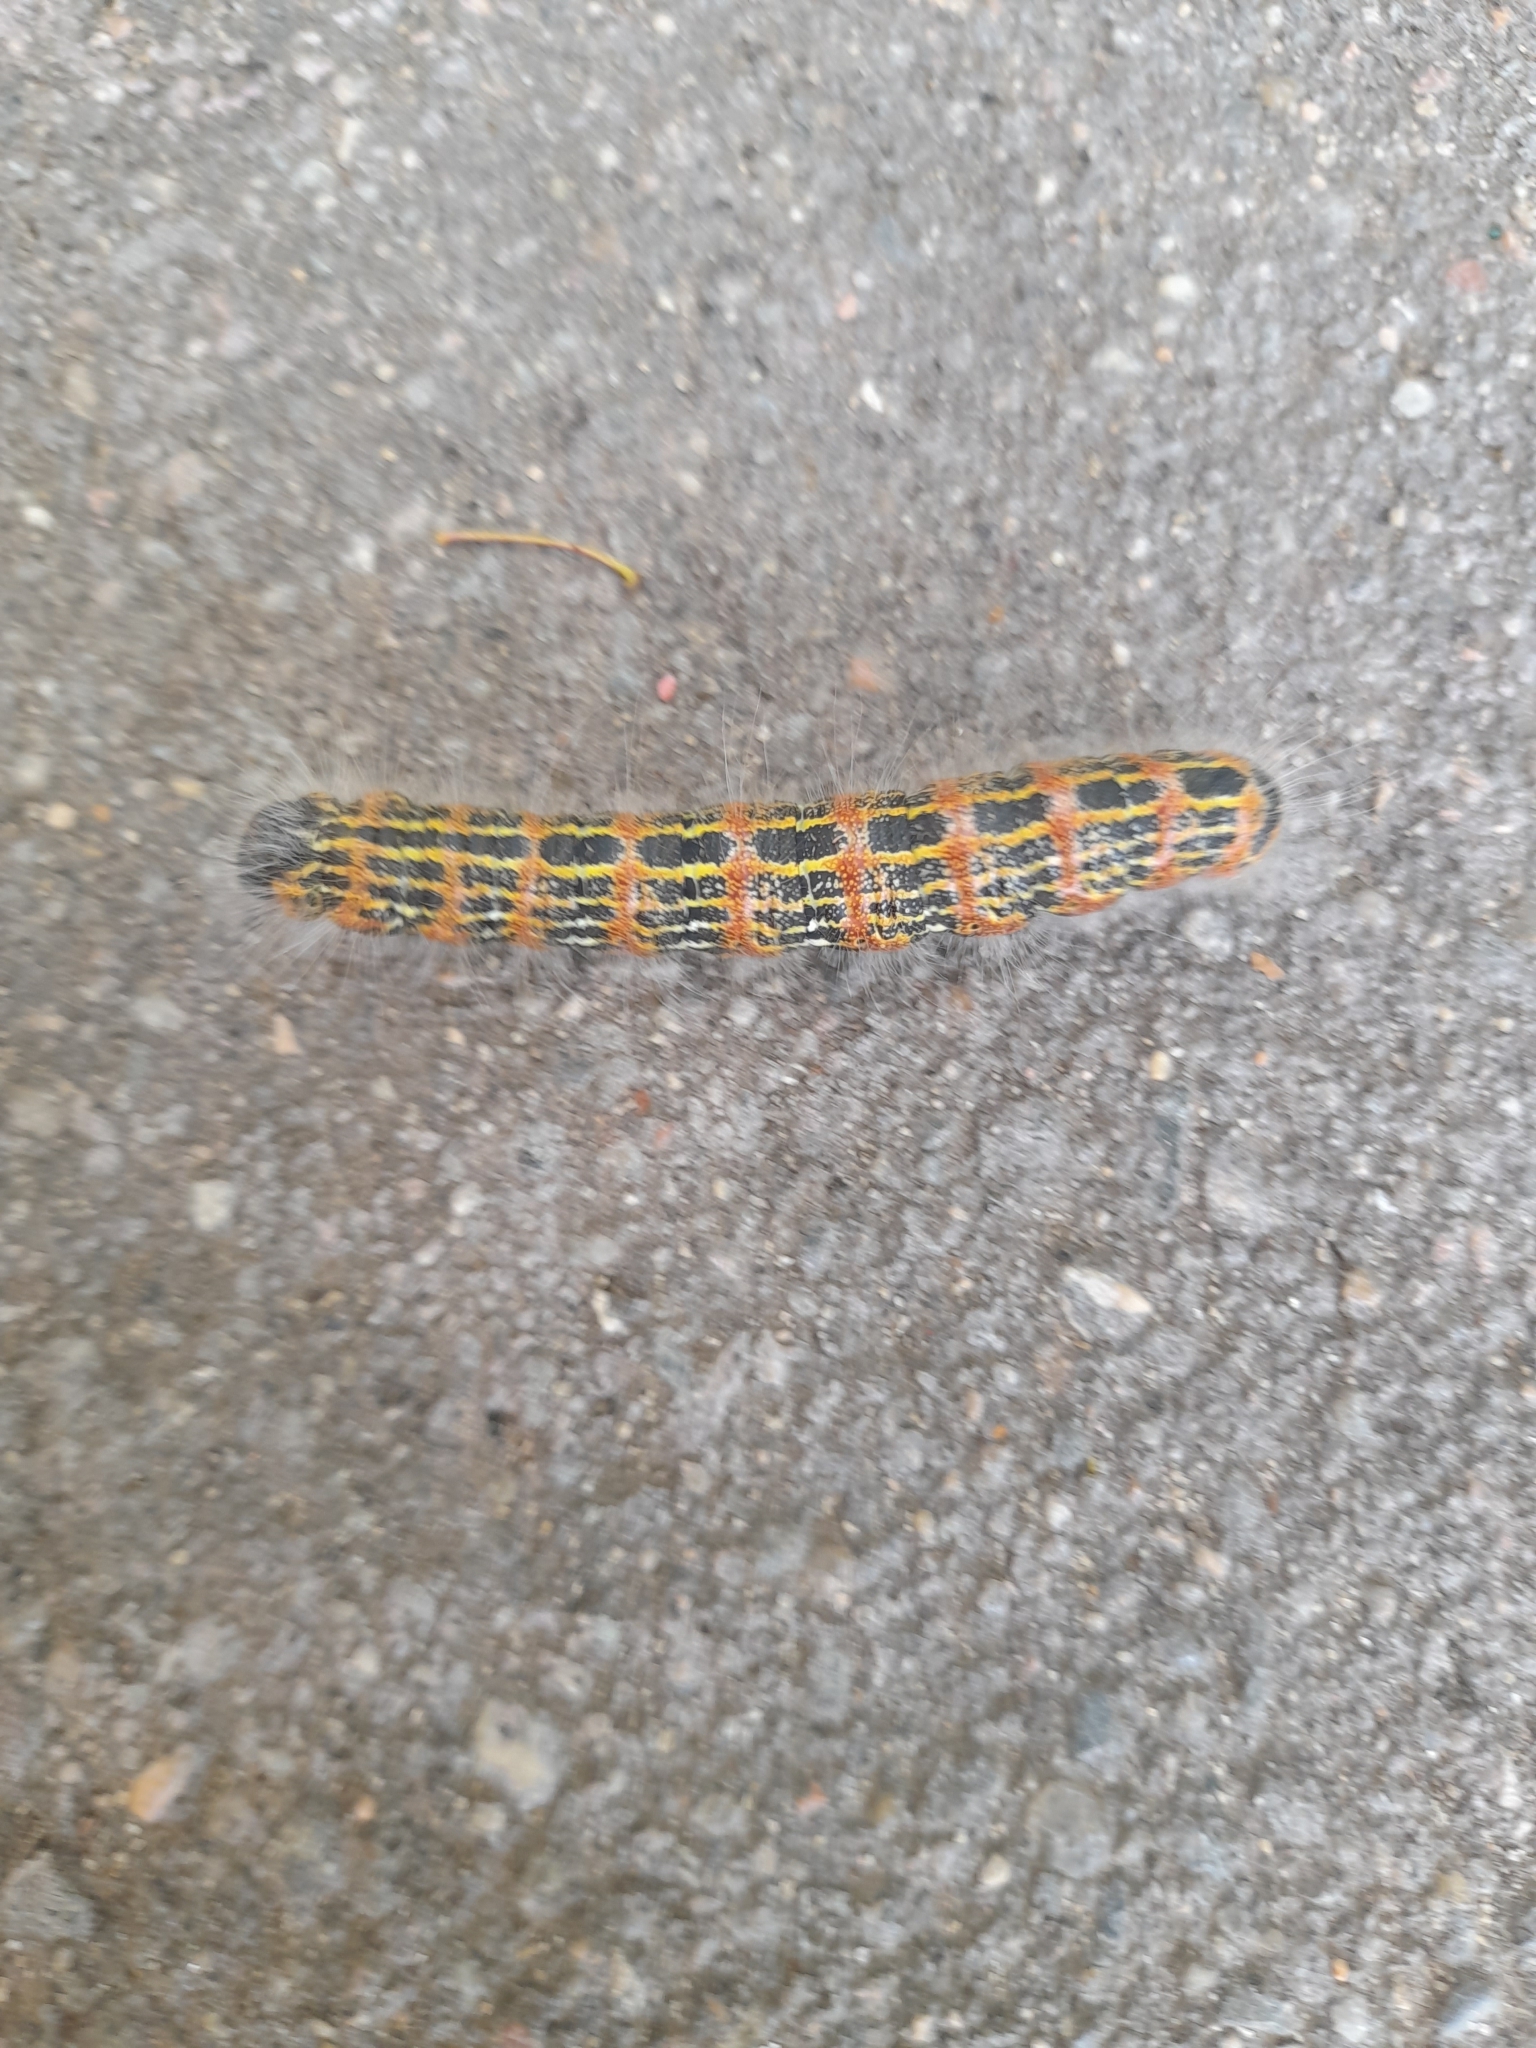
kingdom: Animalia
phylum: Arthropoda
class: Insecta
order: Lepidoptera
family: Notodontidae
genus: Phalera
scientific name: Phalera bucephala
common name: Buff-tip
